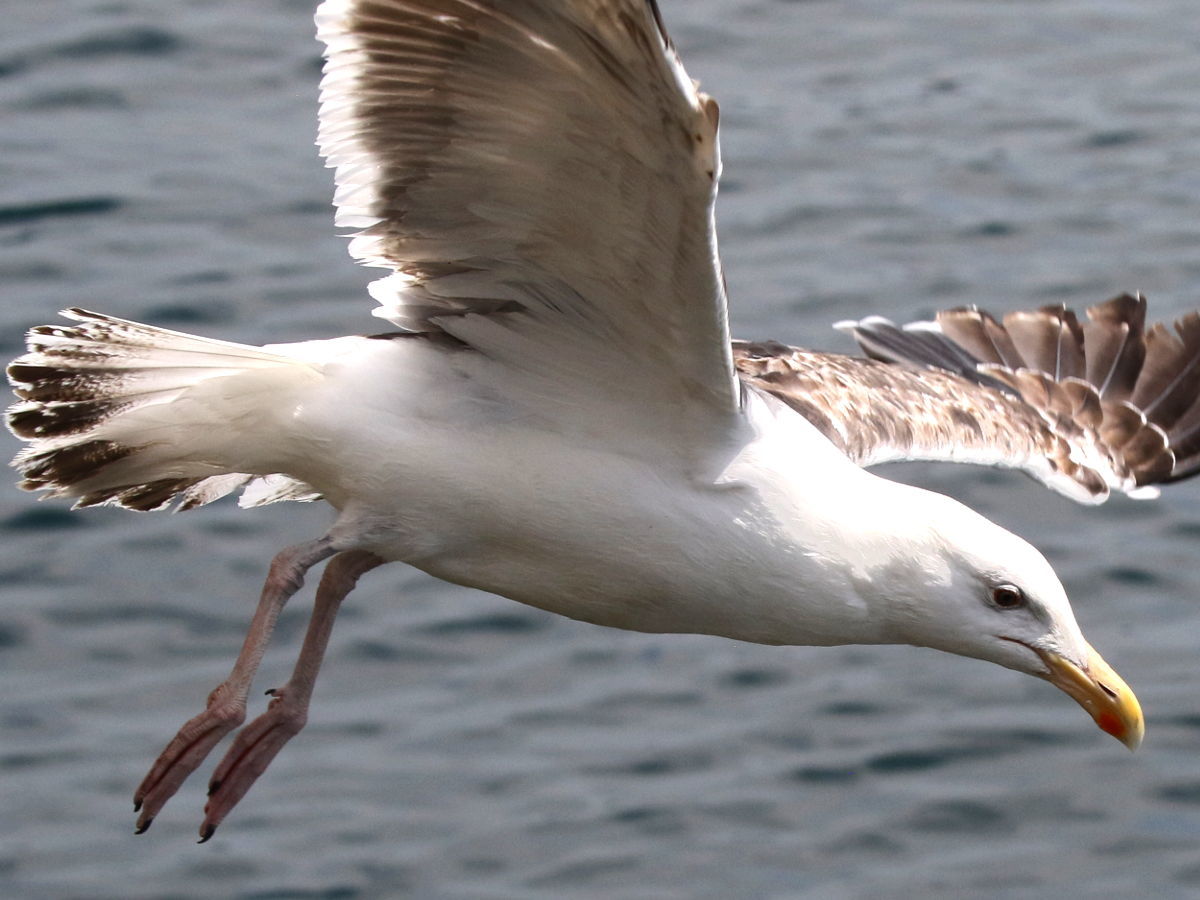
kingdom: Animalia
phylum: Chordata
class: Aves
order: Charadriiformes
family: Laridae
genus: Larus
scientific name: Larus marinus
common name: Great black-backed gull
